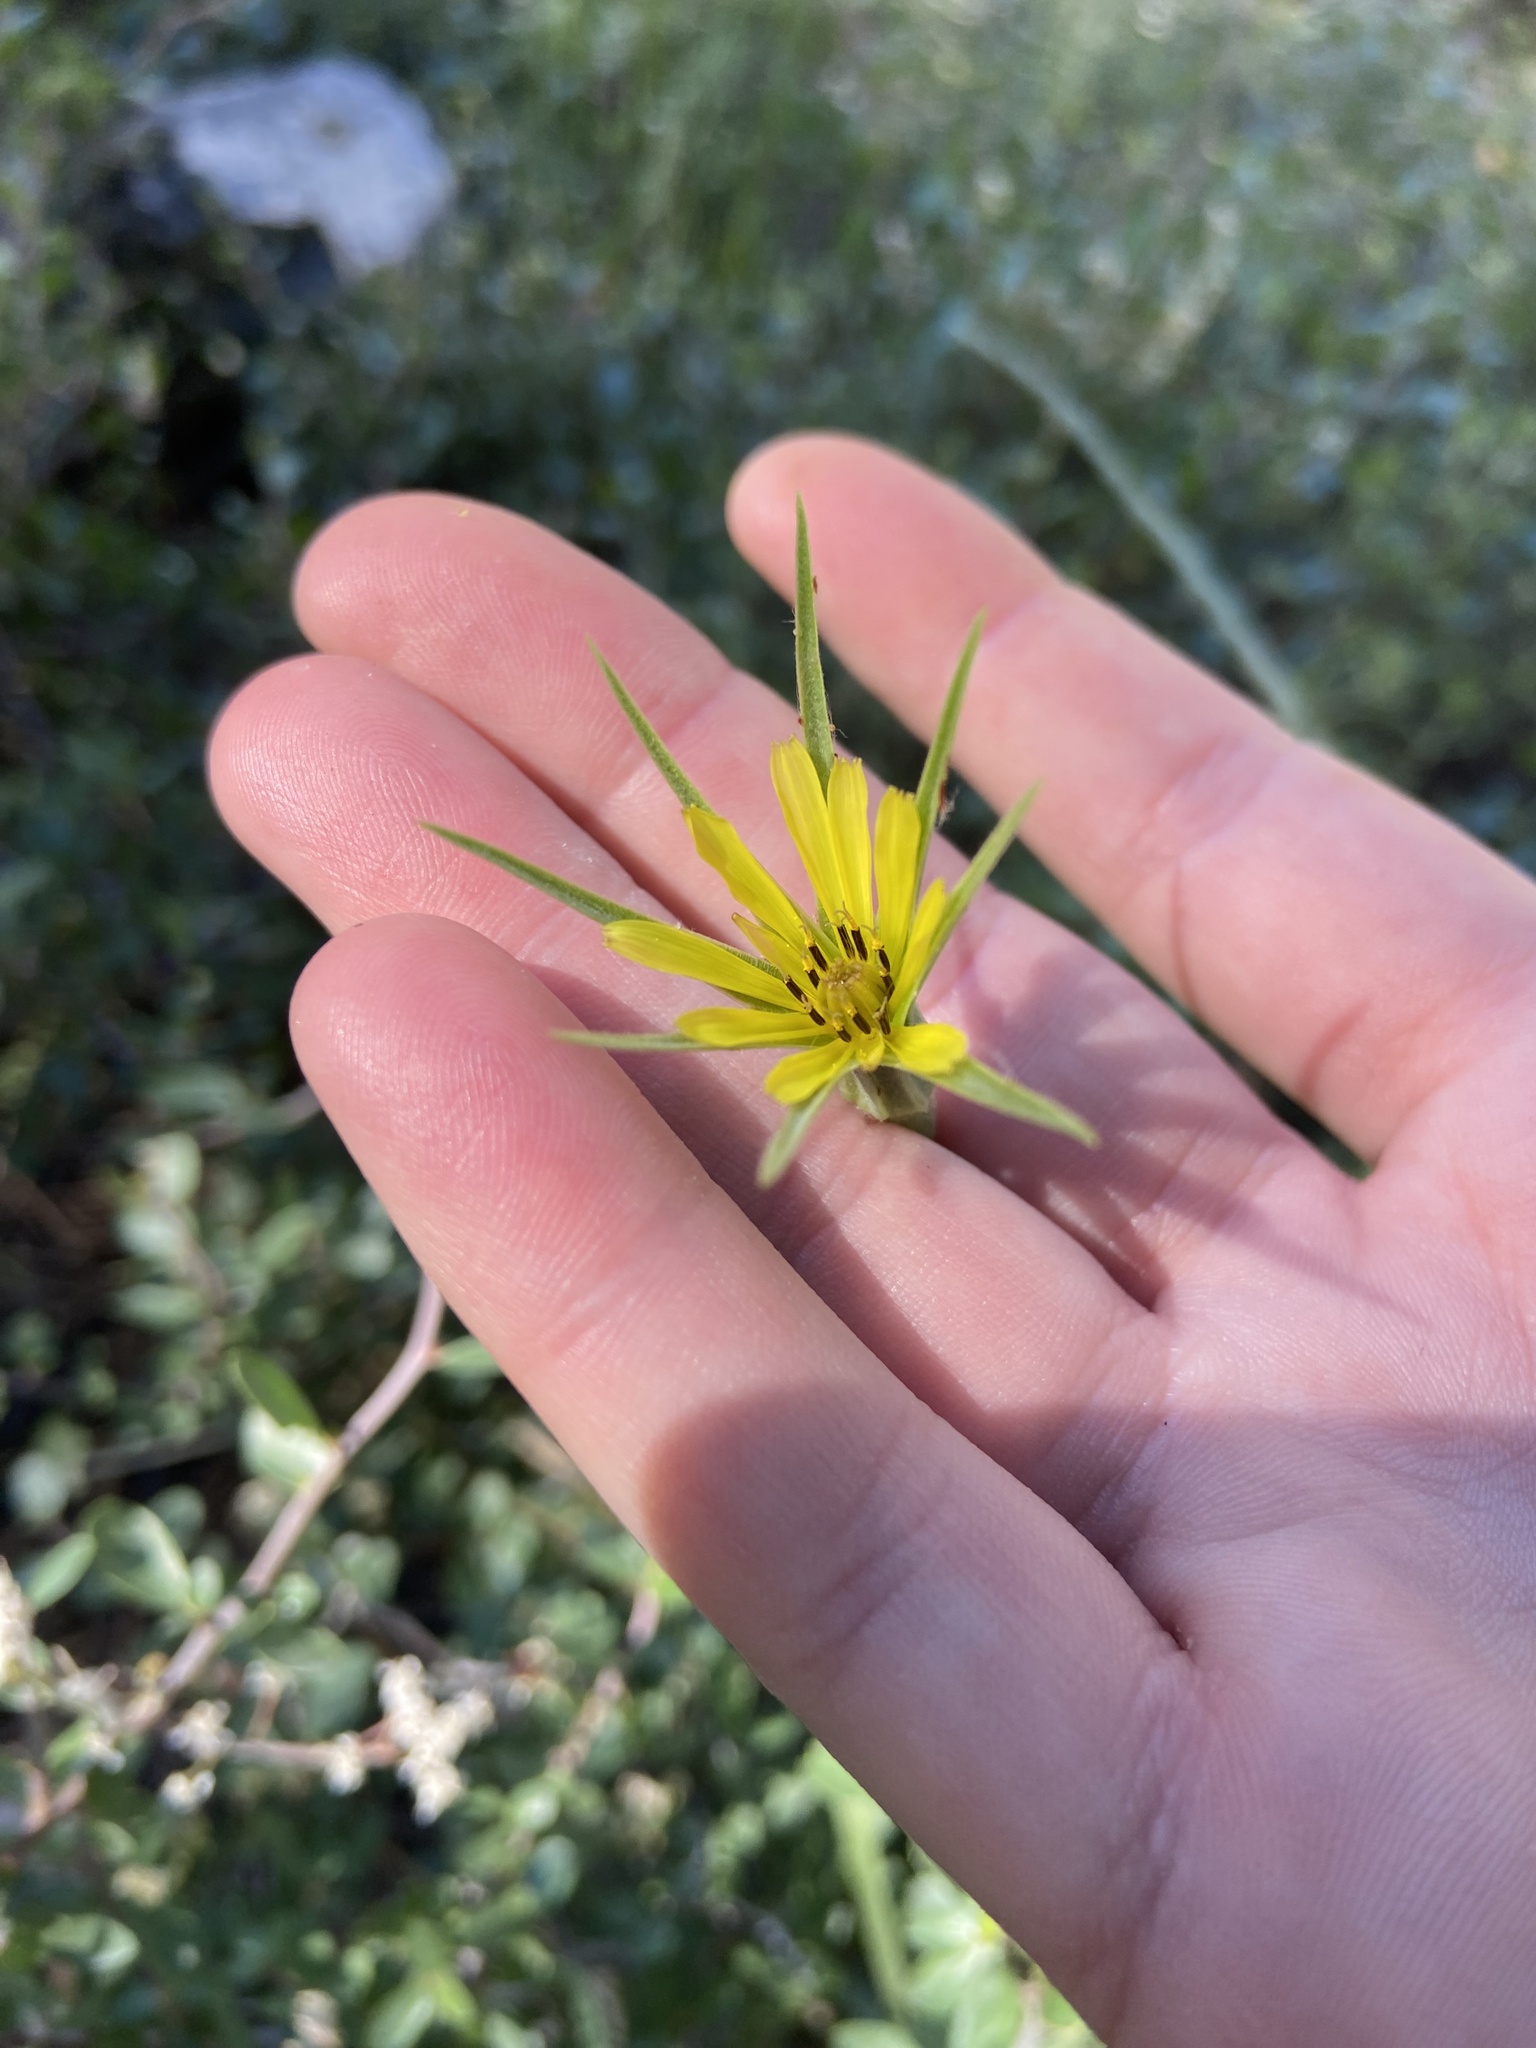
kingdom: Plantae
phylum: Tracheophyta
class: Magnoliopsida
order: Asterales
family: Asteraceae
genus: Tragopogon
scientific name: Tragopogon dubius
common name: Yellow salsify
